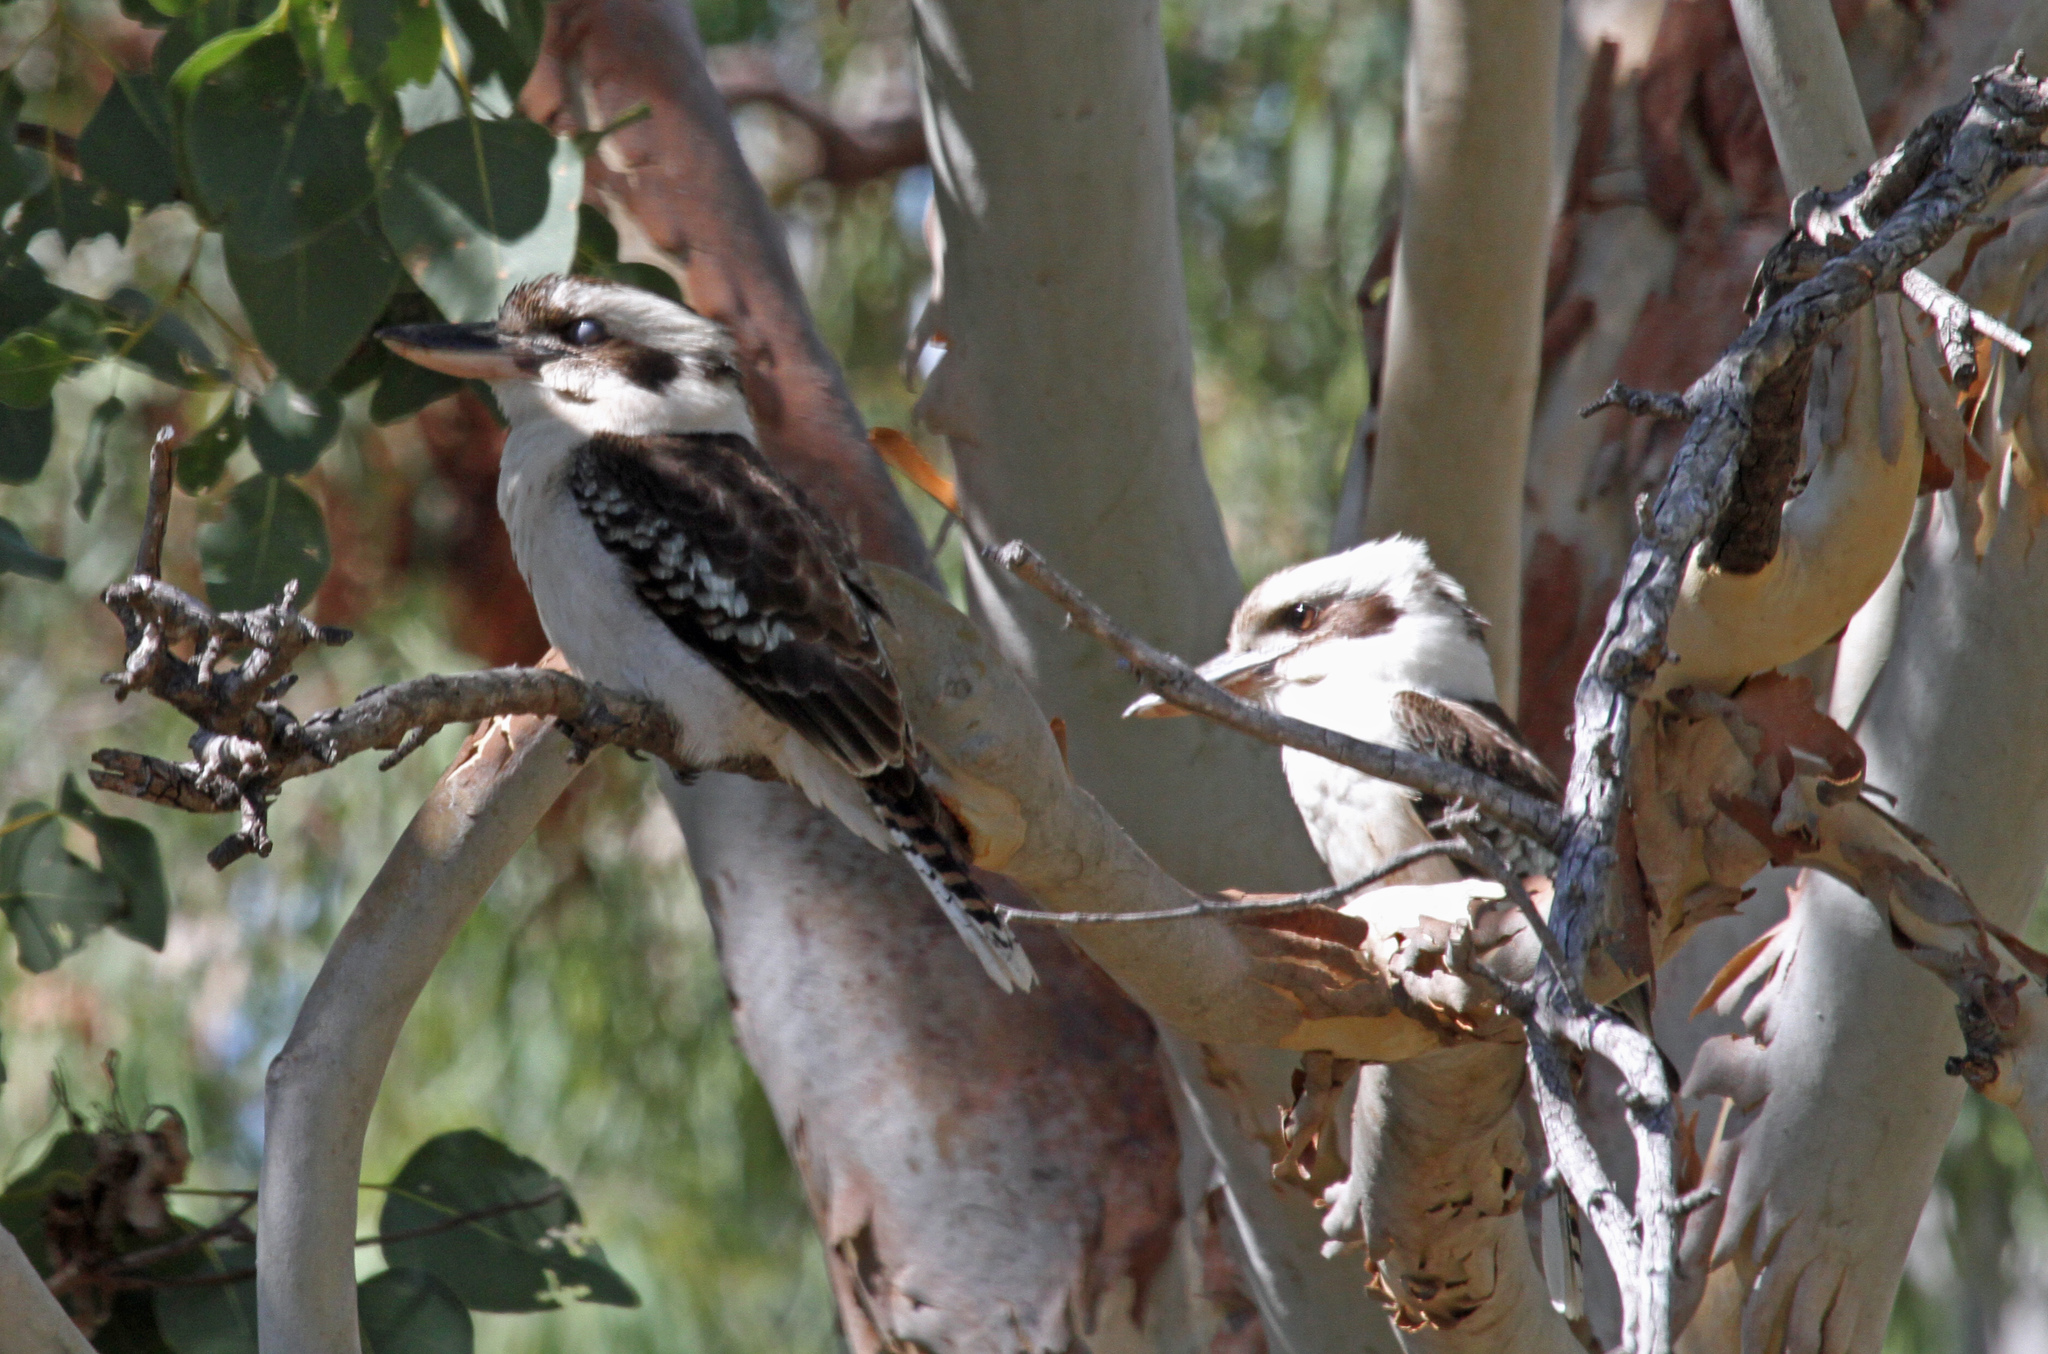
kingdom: Animalia
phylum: Chordata
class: Aves
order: Coraciiformes
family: Alcedinidae
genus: Dacelo
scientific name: Dacelo novaeguineae
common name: Laughing kookaburra
